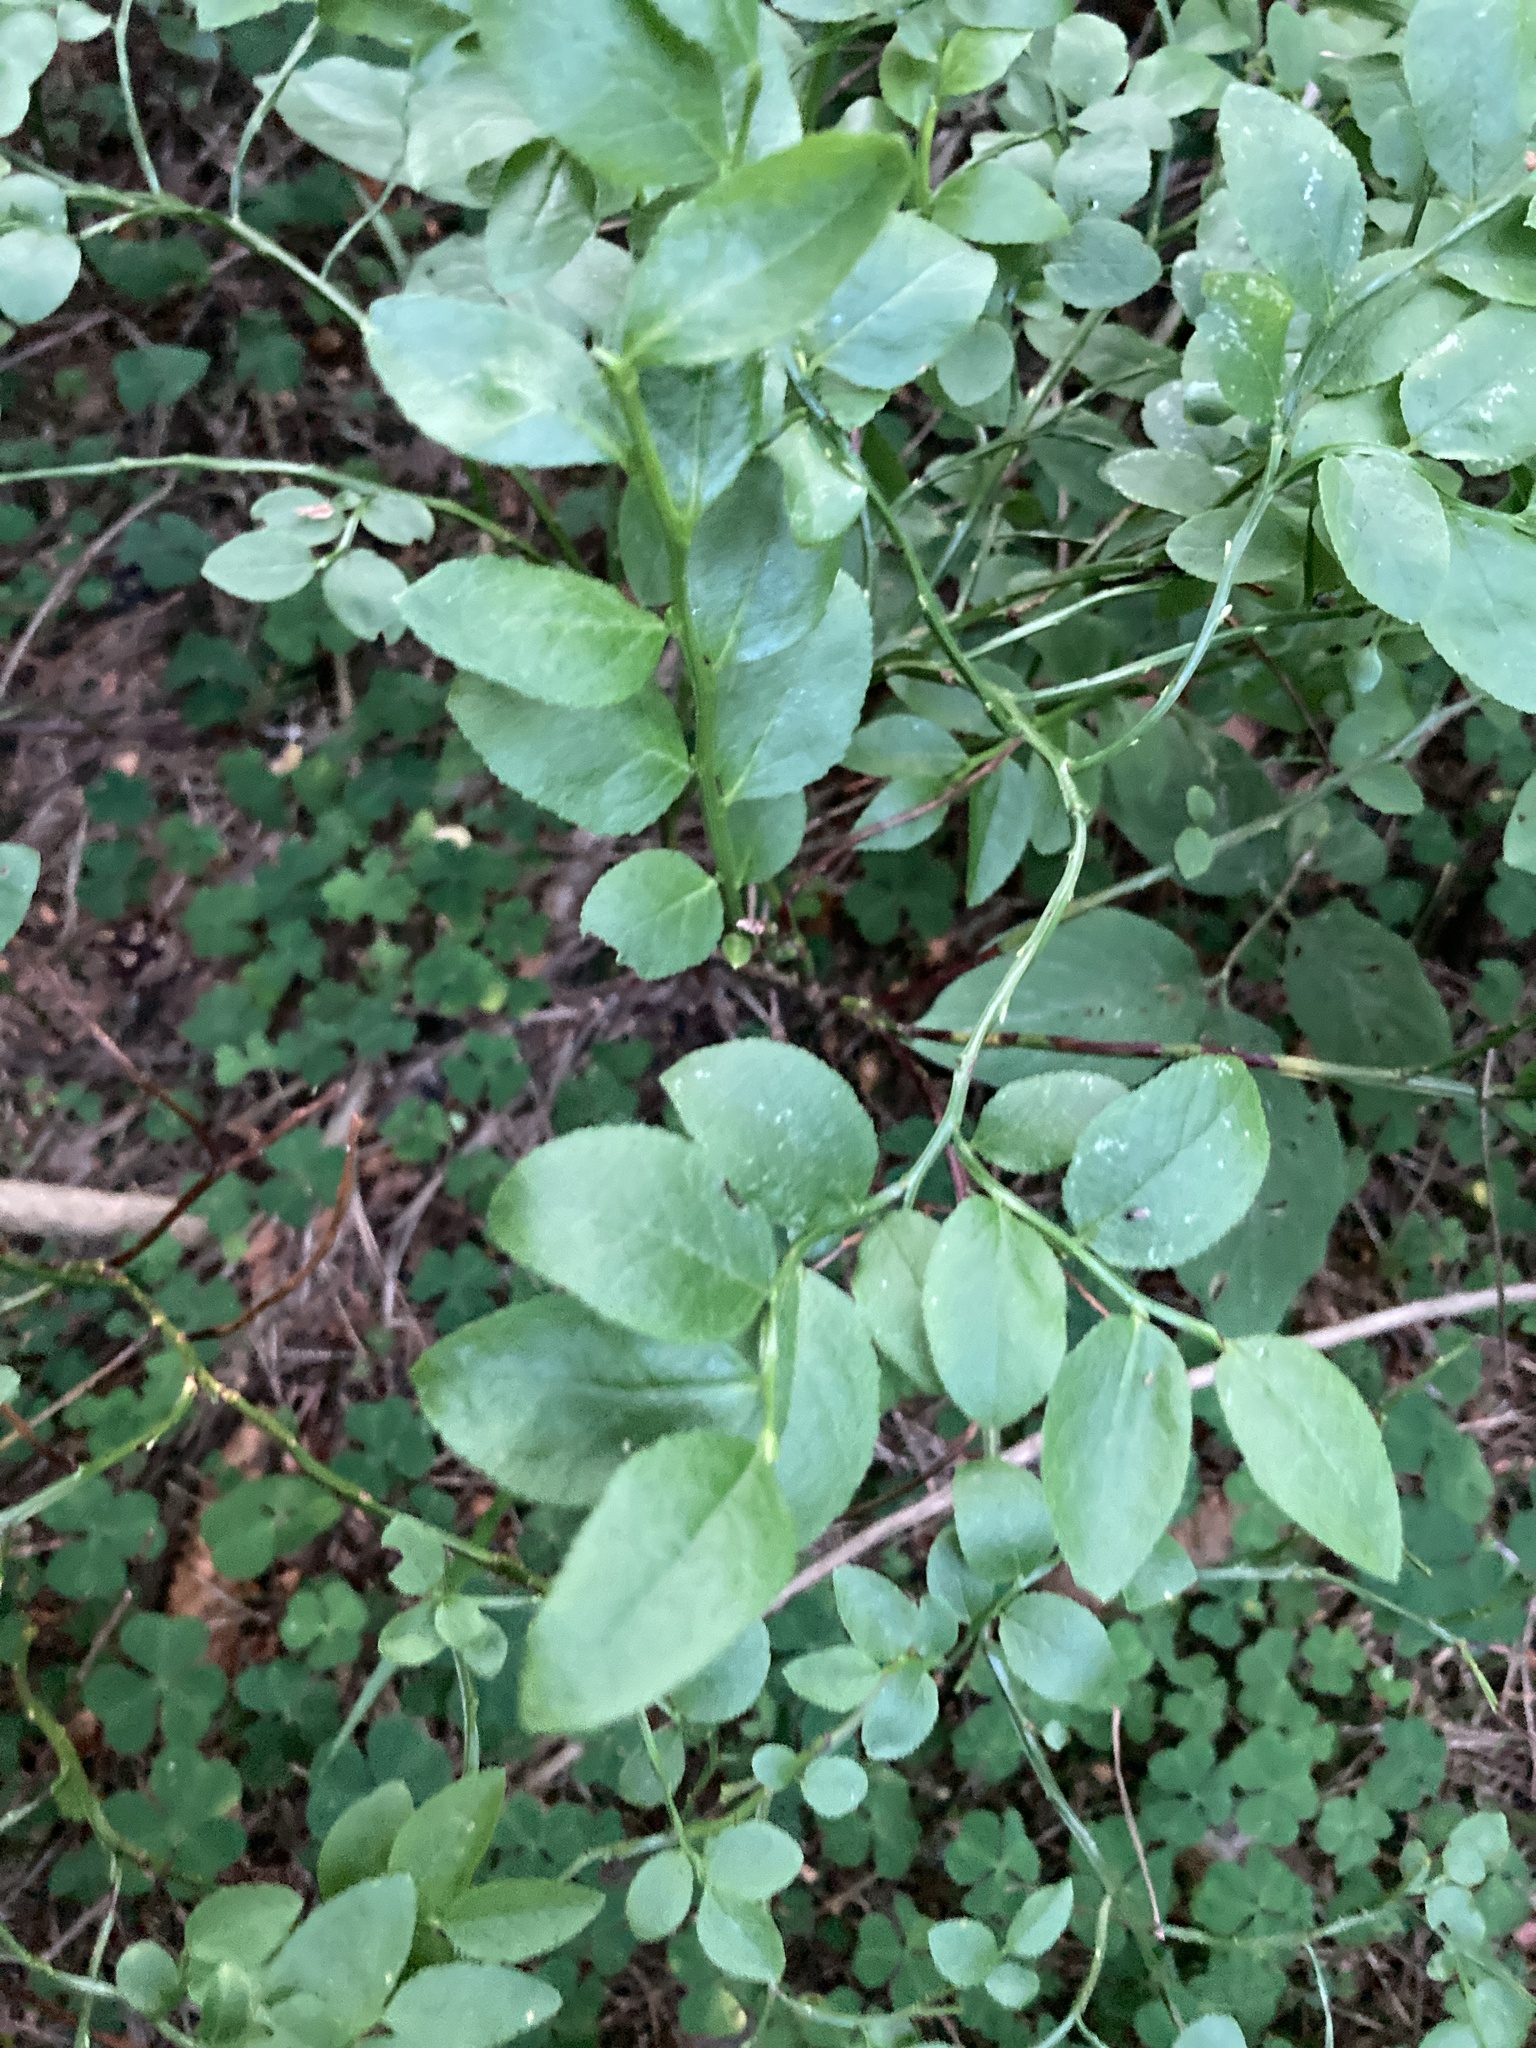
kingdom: Plantae
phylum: Tracheophyta
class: Magnoliopsida
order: Ericales
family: Ericaceae
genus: Vaccinium
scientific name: Vaccinium myrtillus
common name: Bilberry
